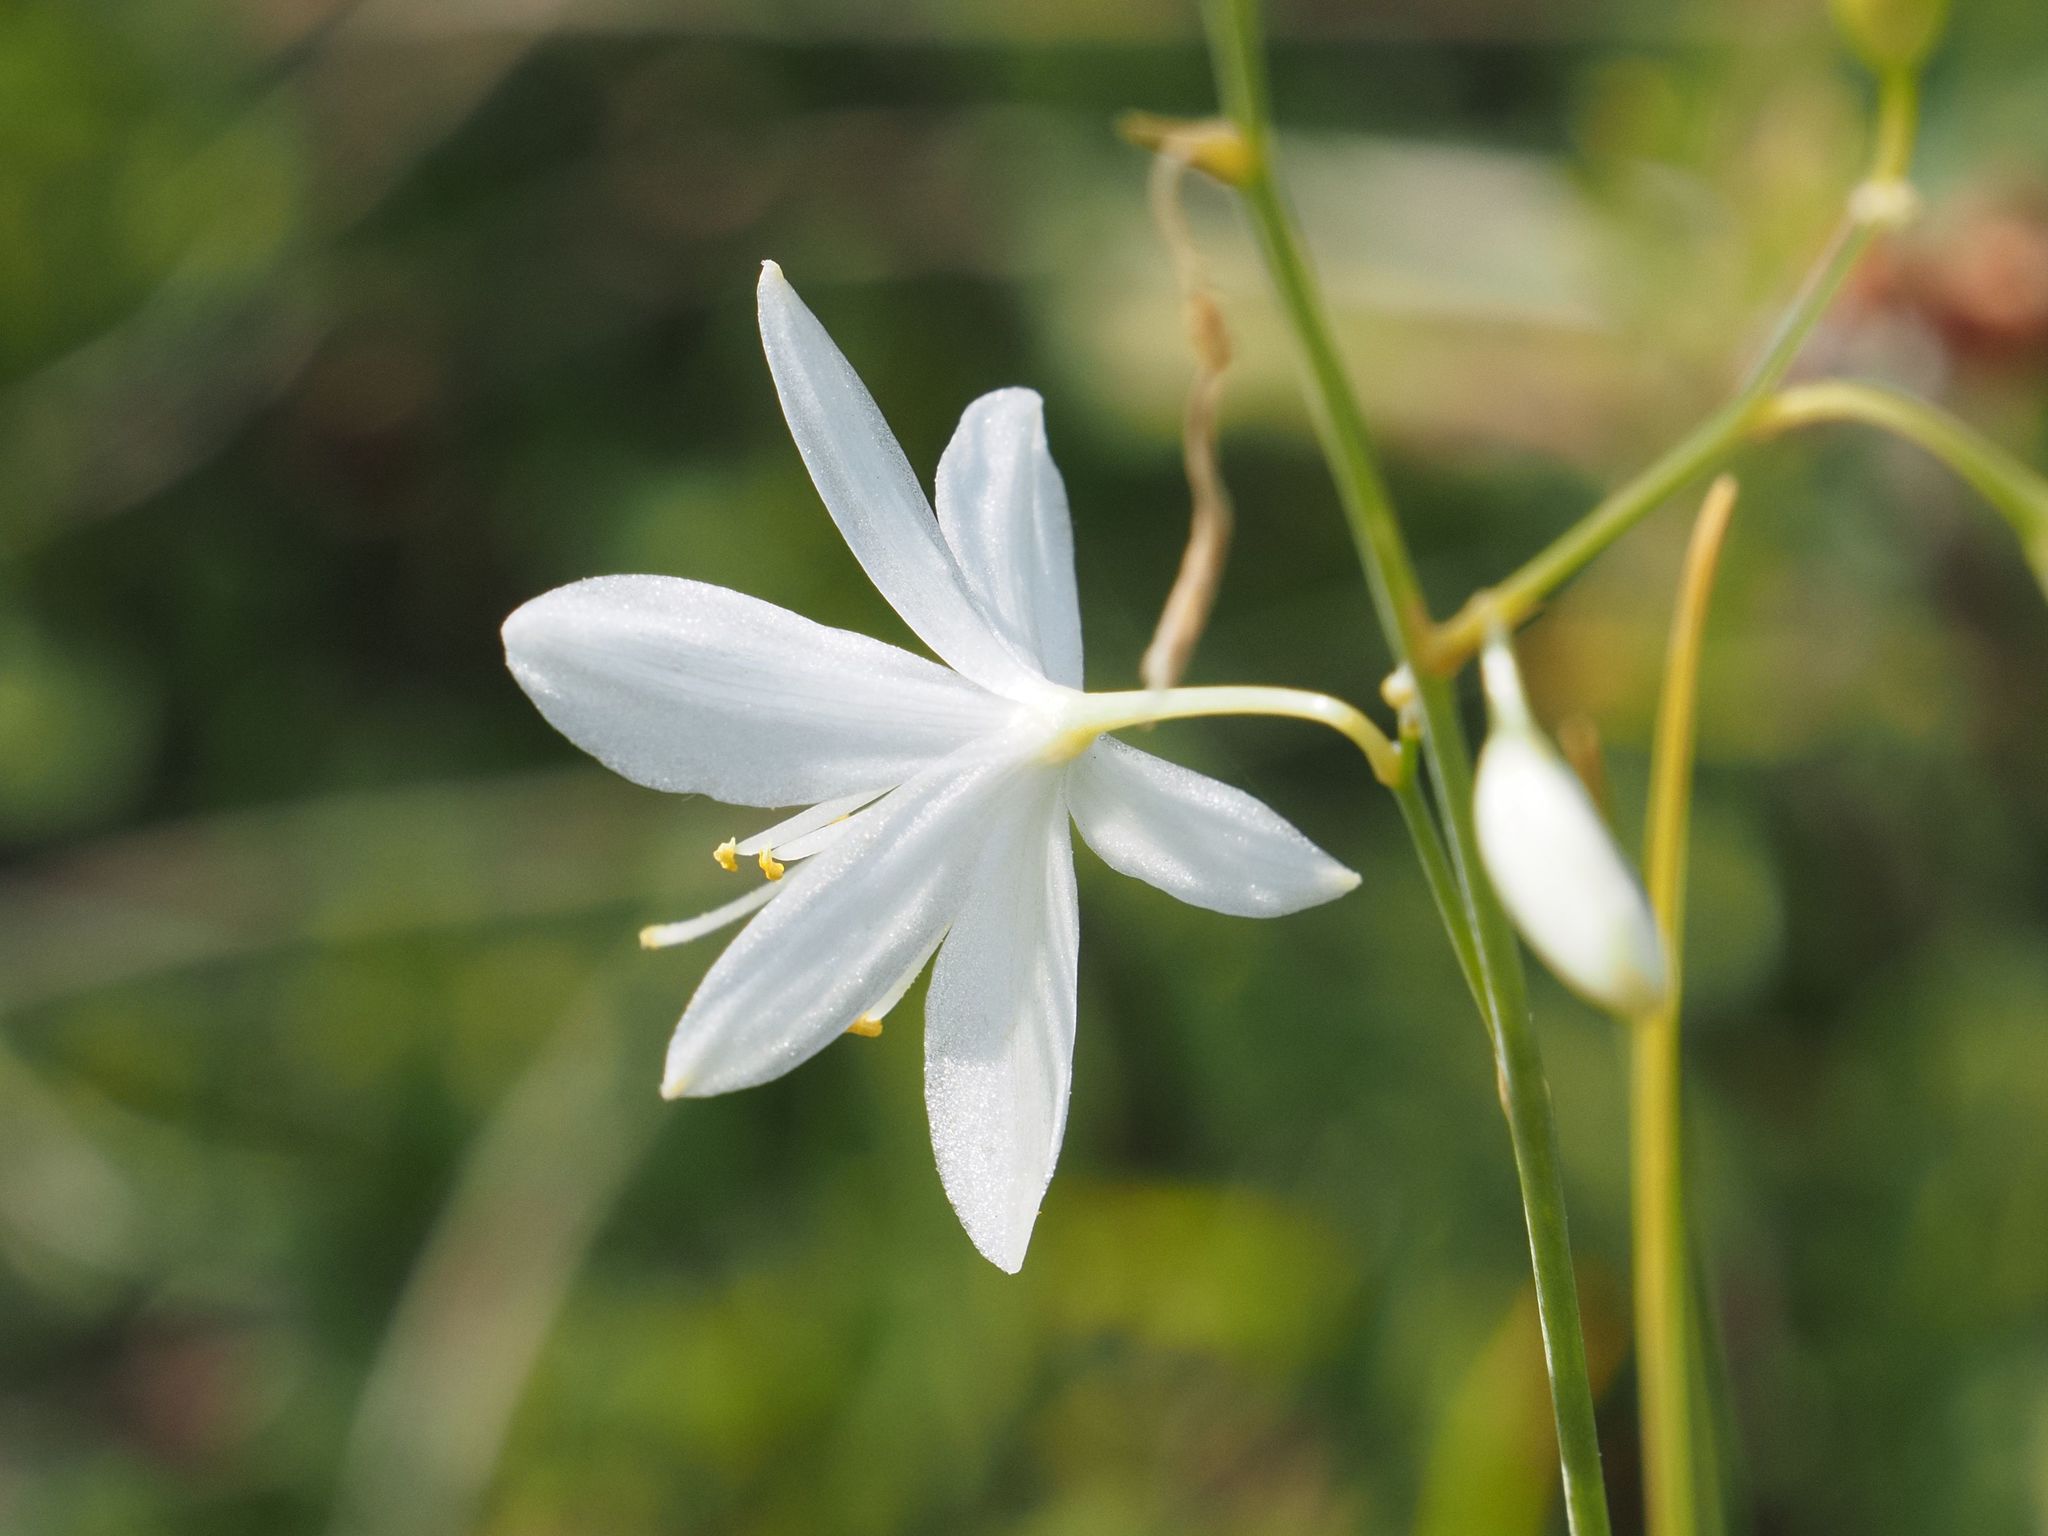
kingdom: Plantae
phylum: Tracheophyta
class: Liliopsida
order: Asparagales
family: Asparagaceae
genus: Anthericum
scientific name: Anthericum ramosum
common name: Branched st. bernard's-lily
